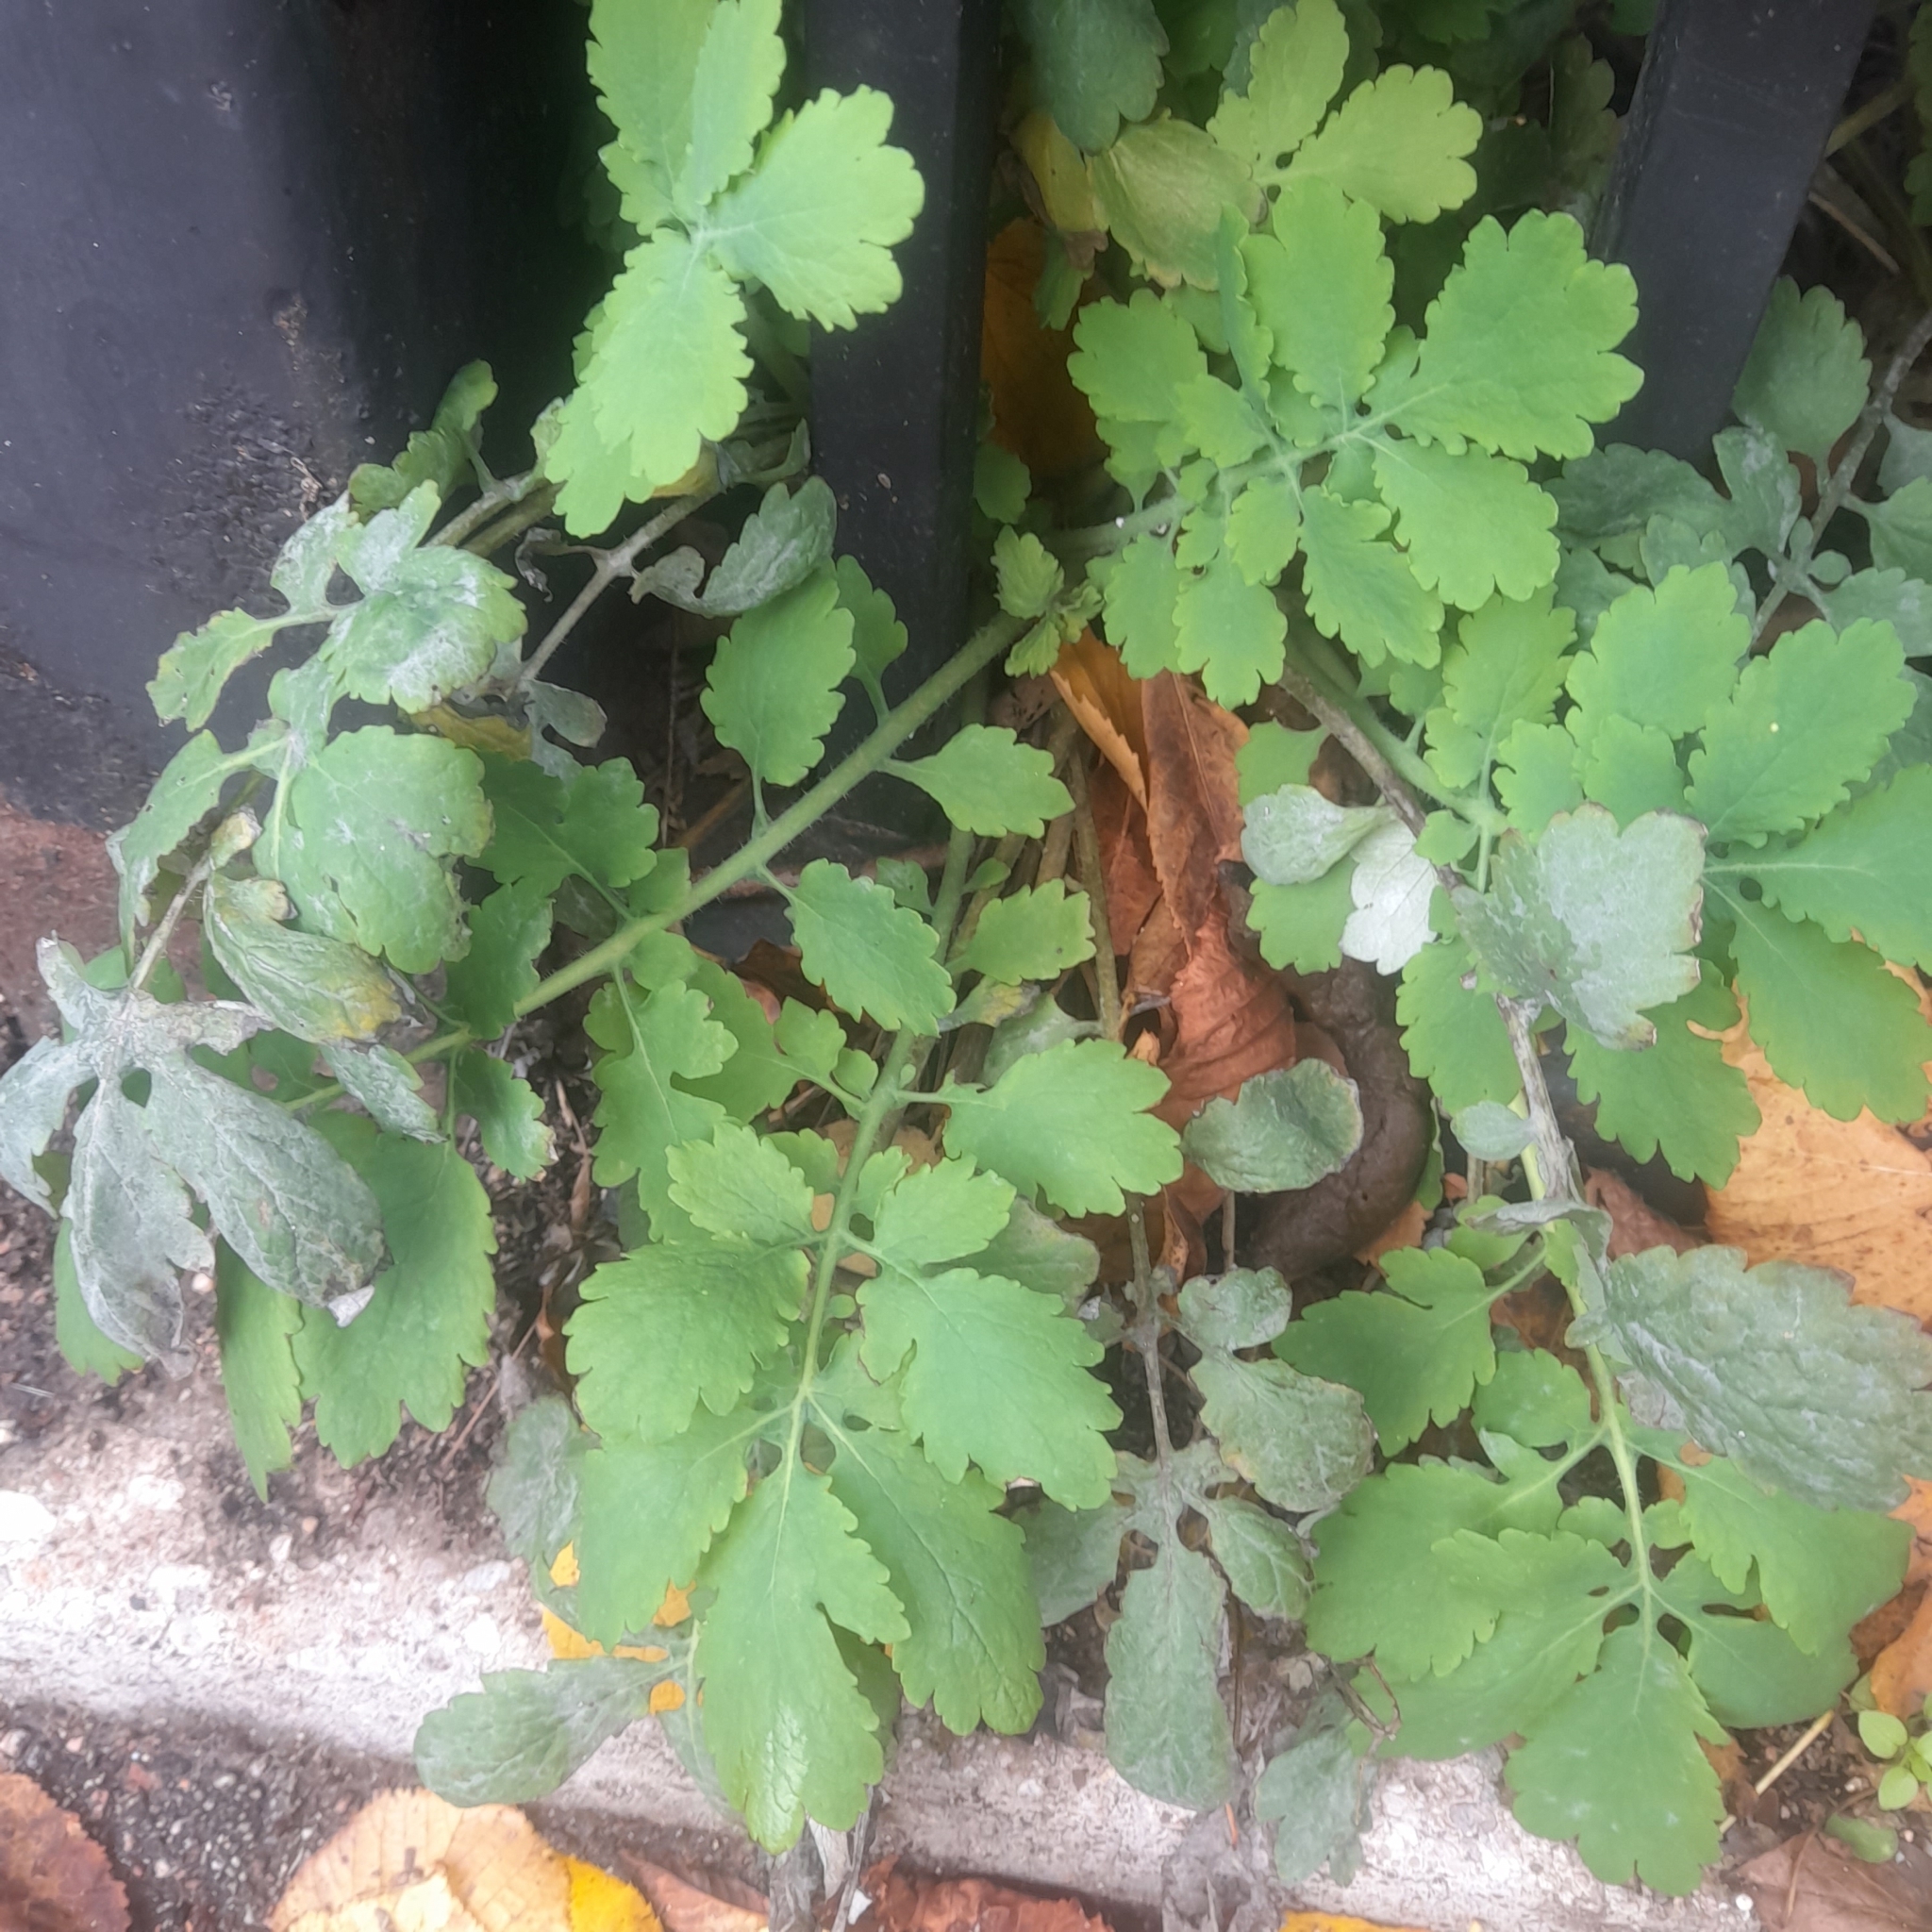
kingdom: Plantae
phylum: Tracheophyta
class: Magnoliopsida
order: Ranunculales
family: Papaveraceae
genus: Chelidonium
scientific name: Chelidonium majus
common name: Greater celandine
